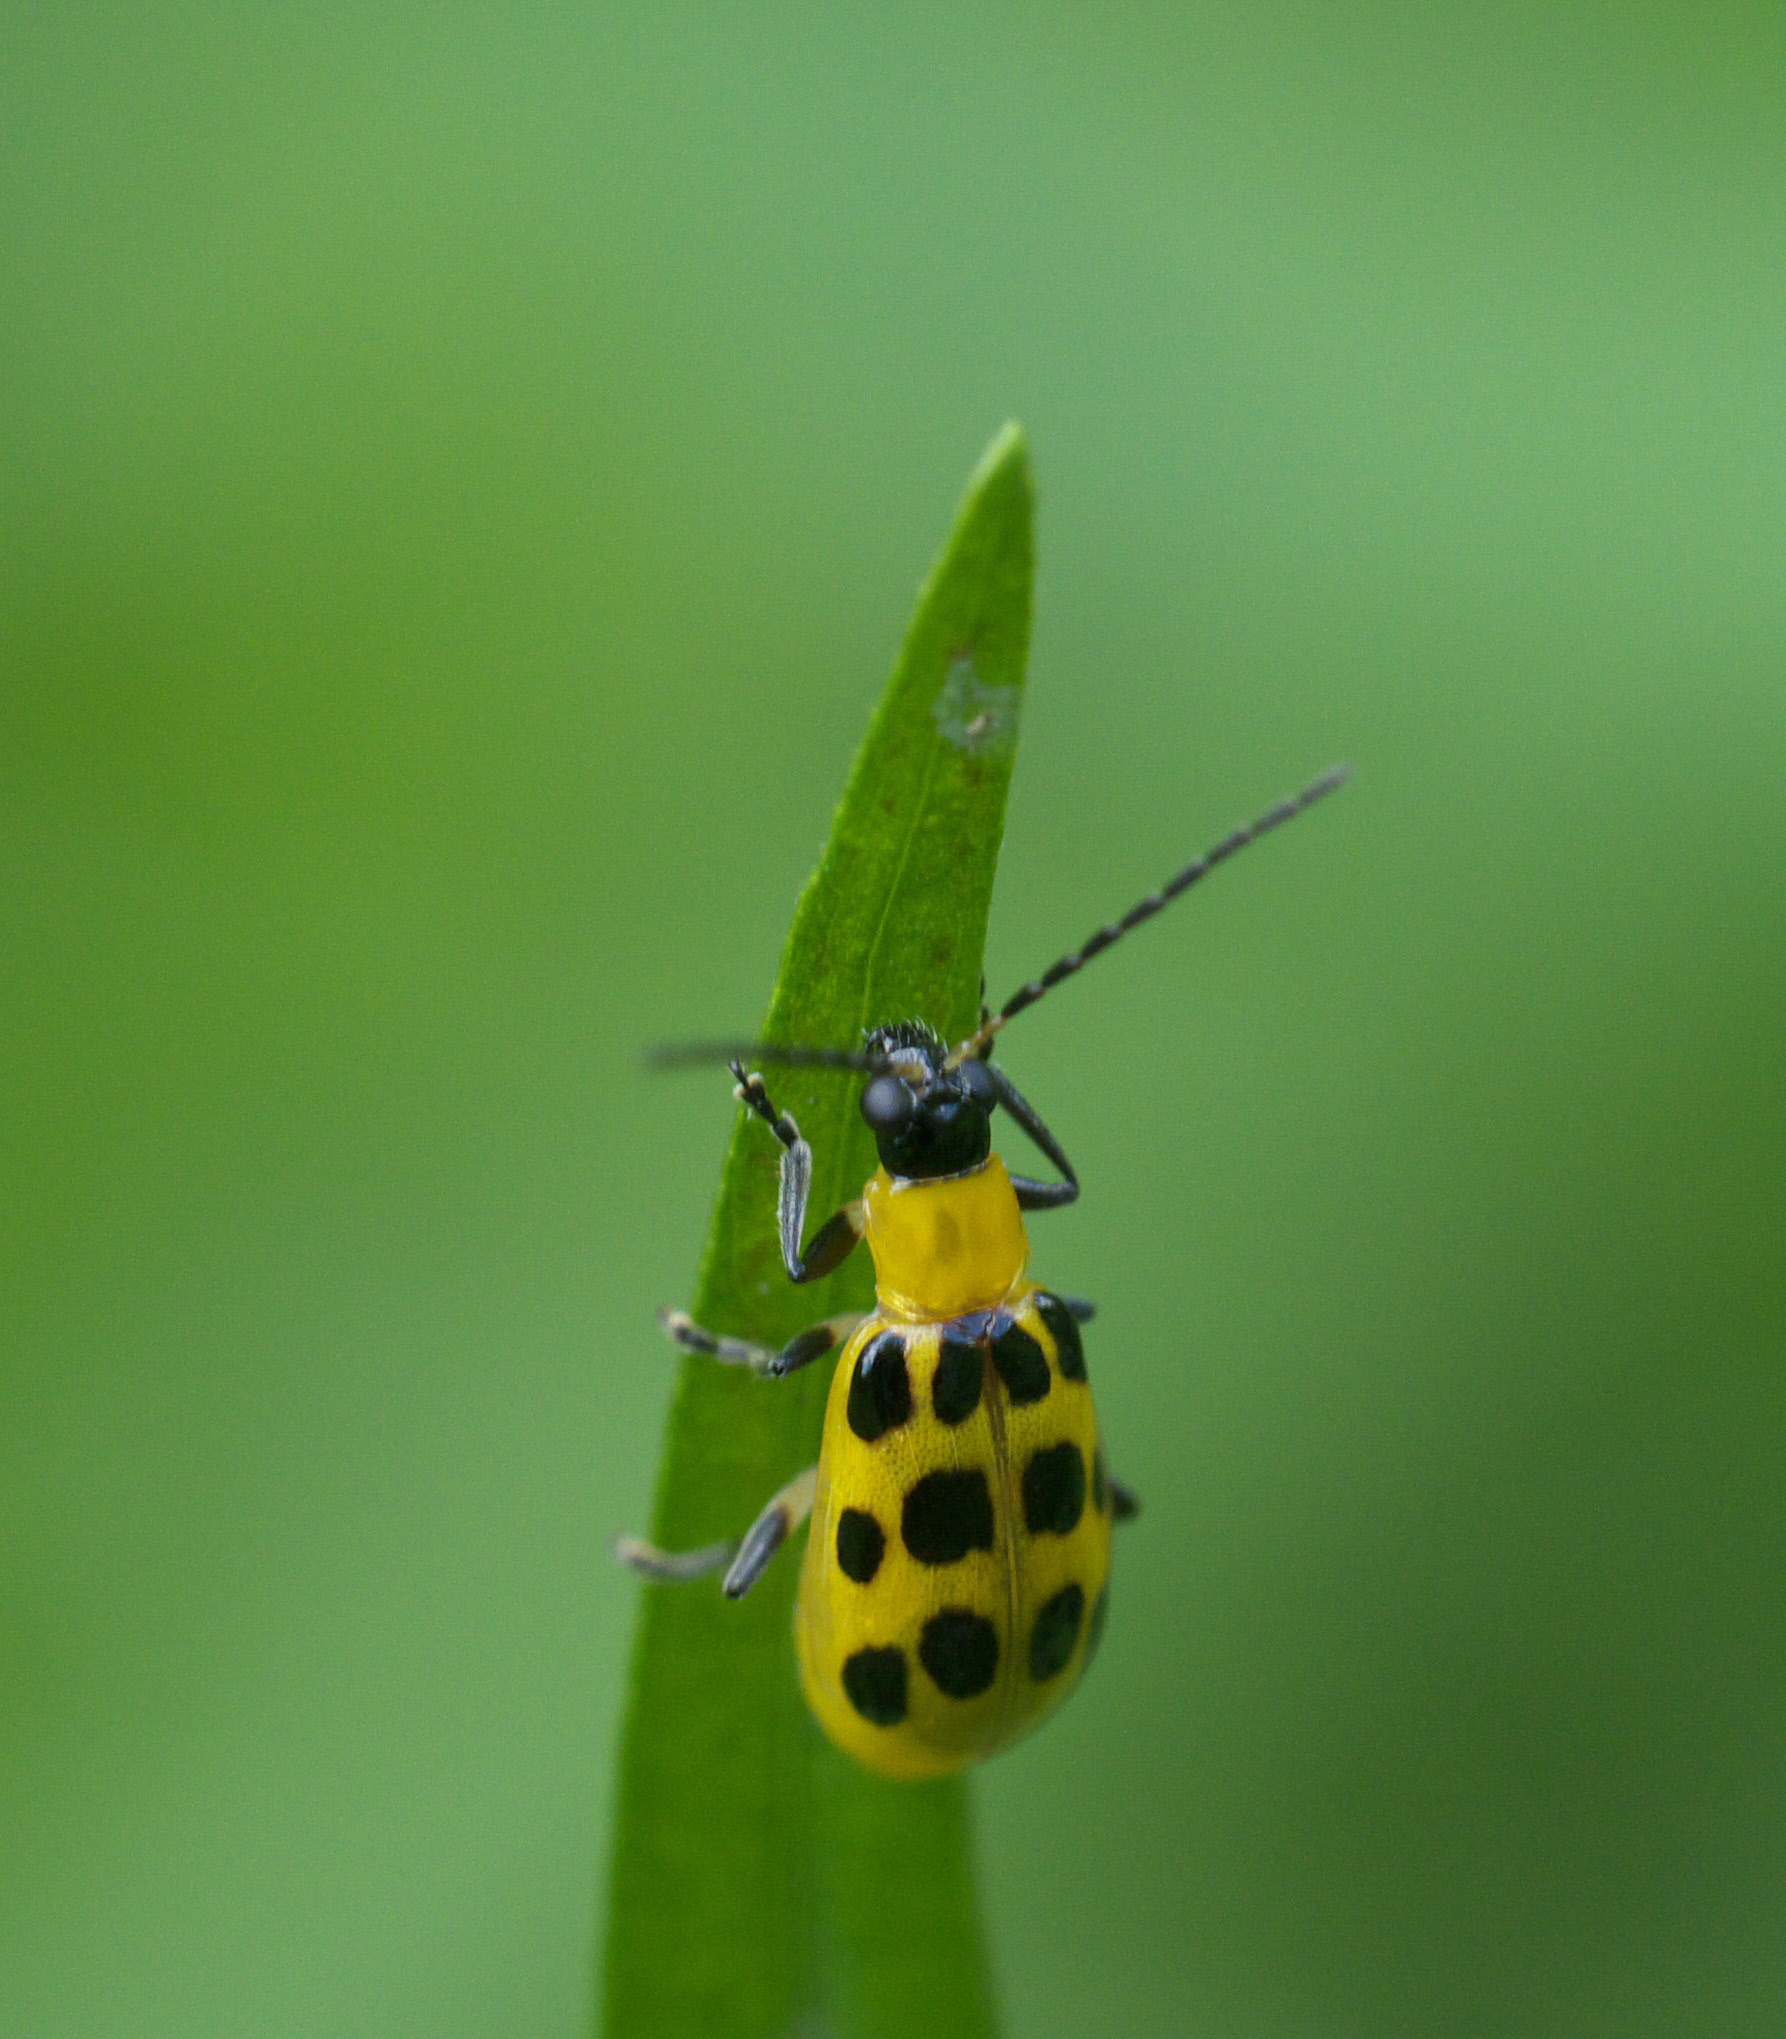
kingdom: Animalia
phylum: Arthropoda
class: Insecta
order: Coleoptera
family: Chrysomelidae
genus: Diabrotica
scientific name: Diabrotica undecimpunctata
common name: Spotted cucumber beetle
